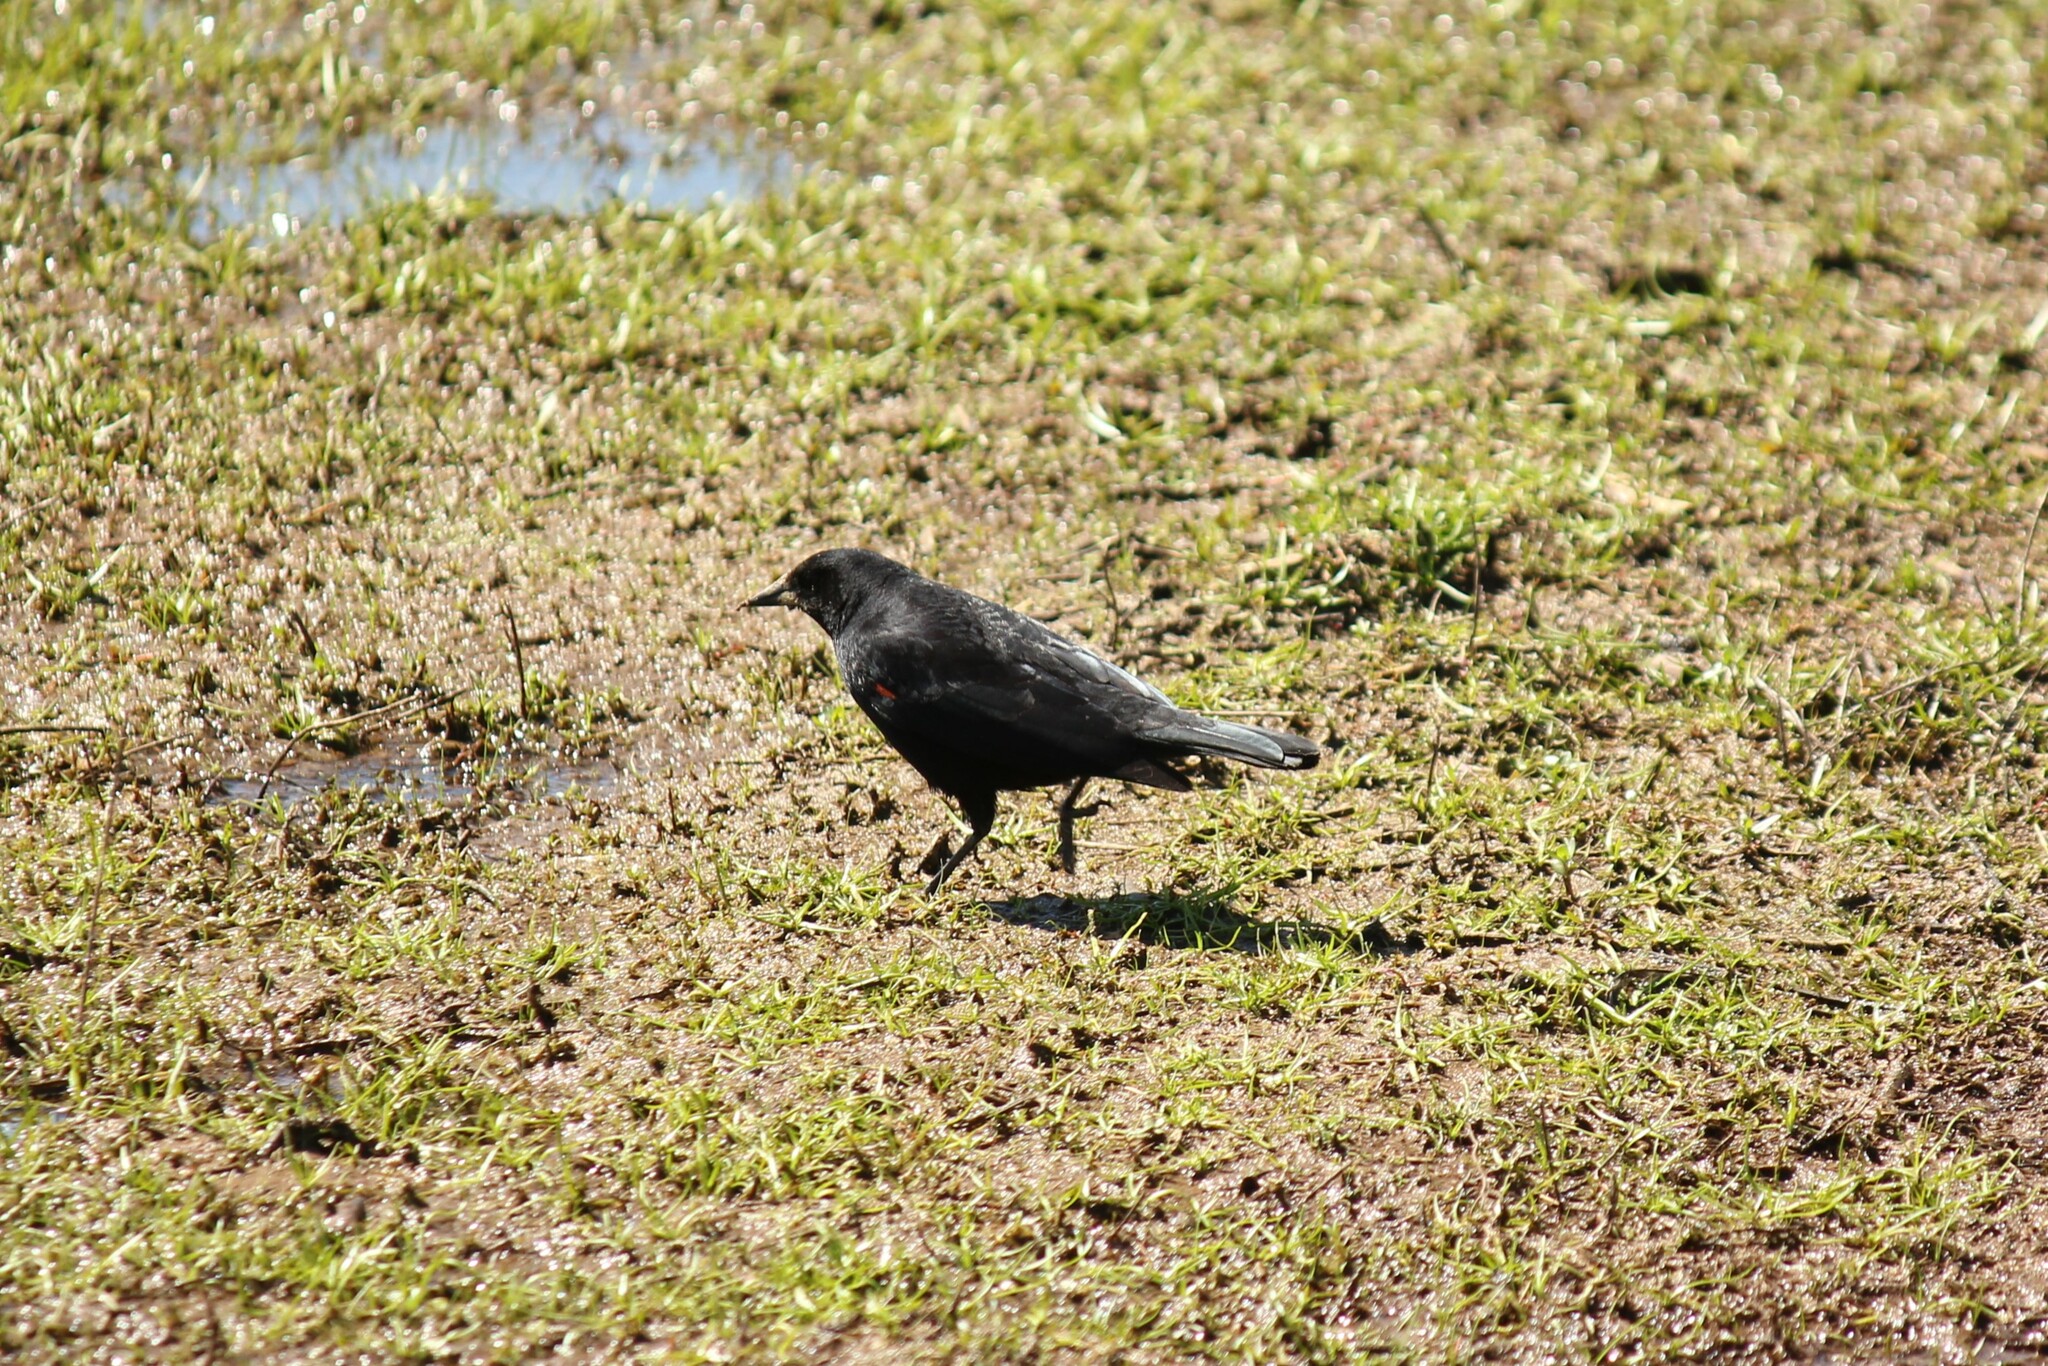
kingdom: Animalia
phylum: Chordata
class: Aves
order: Passeriformes
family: Icteridae
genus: Agelaius
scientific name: Agelaius phoeniceus
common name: Red-winged blackbird
